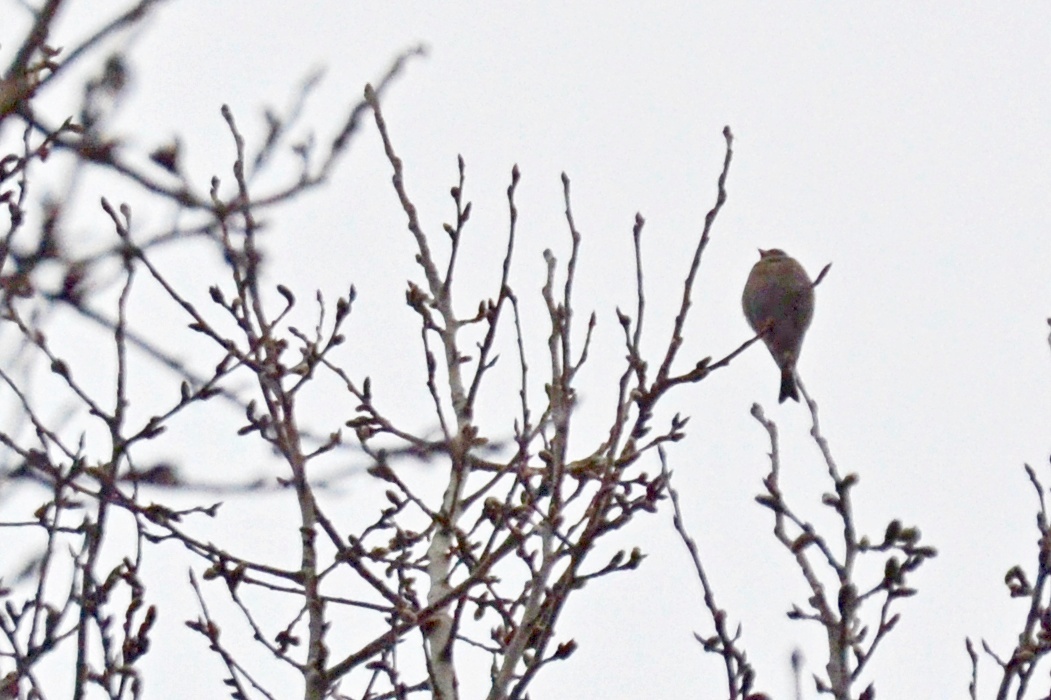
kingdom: Plantae
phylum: Tracheophyta
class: Liliopsida
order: Poales
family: Poaceae
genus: Chloris
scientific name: Chloris chloris
